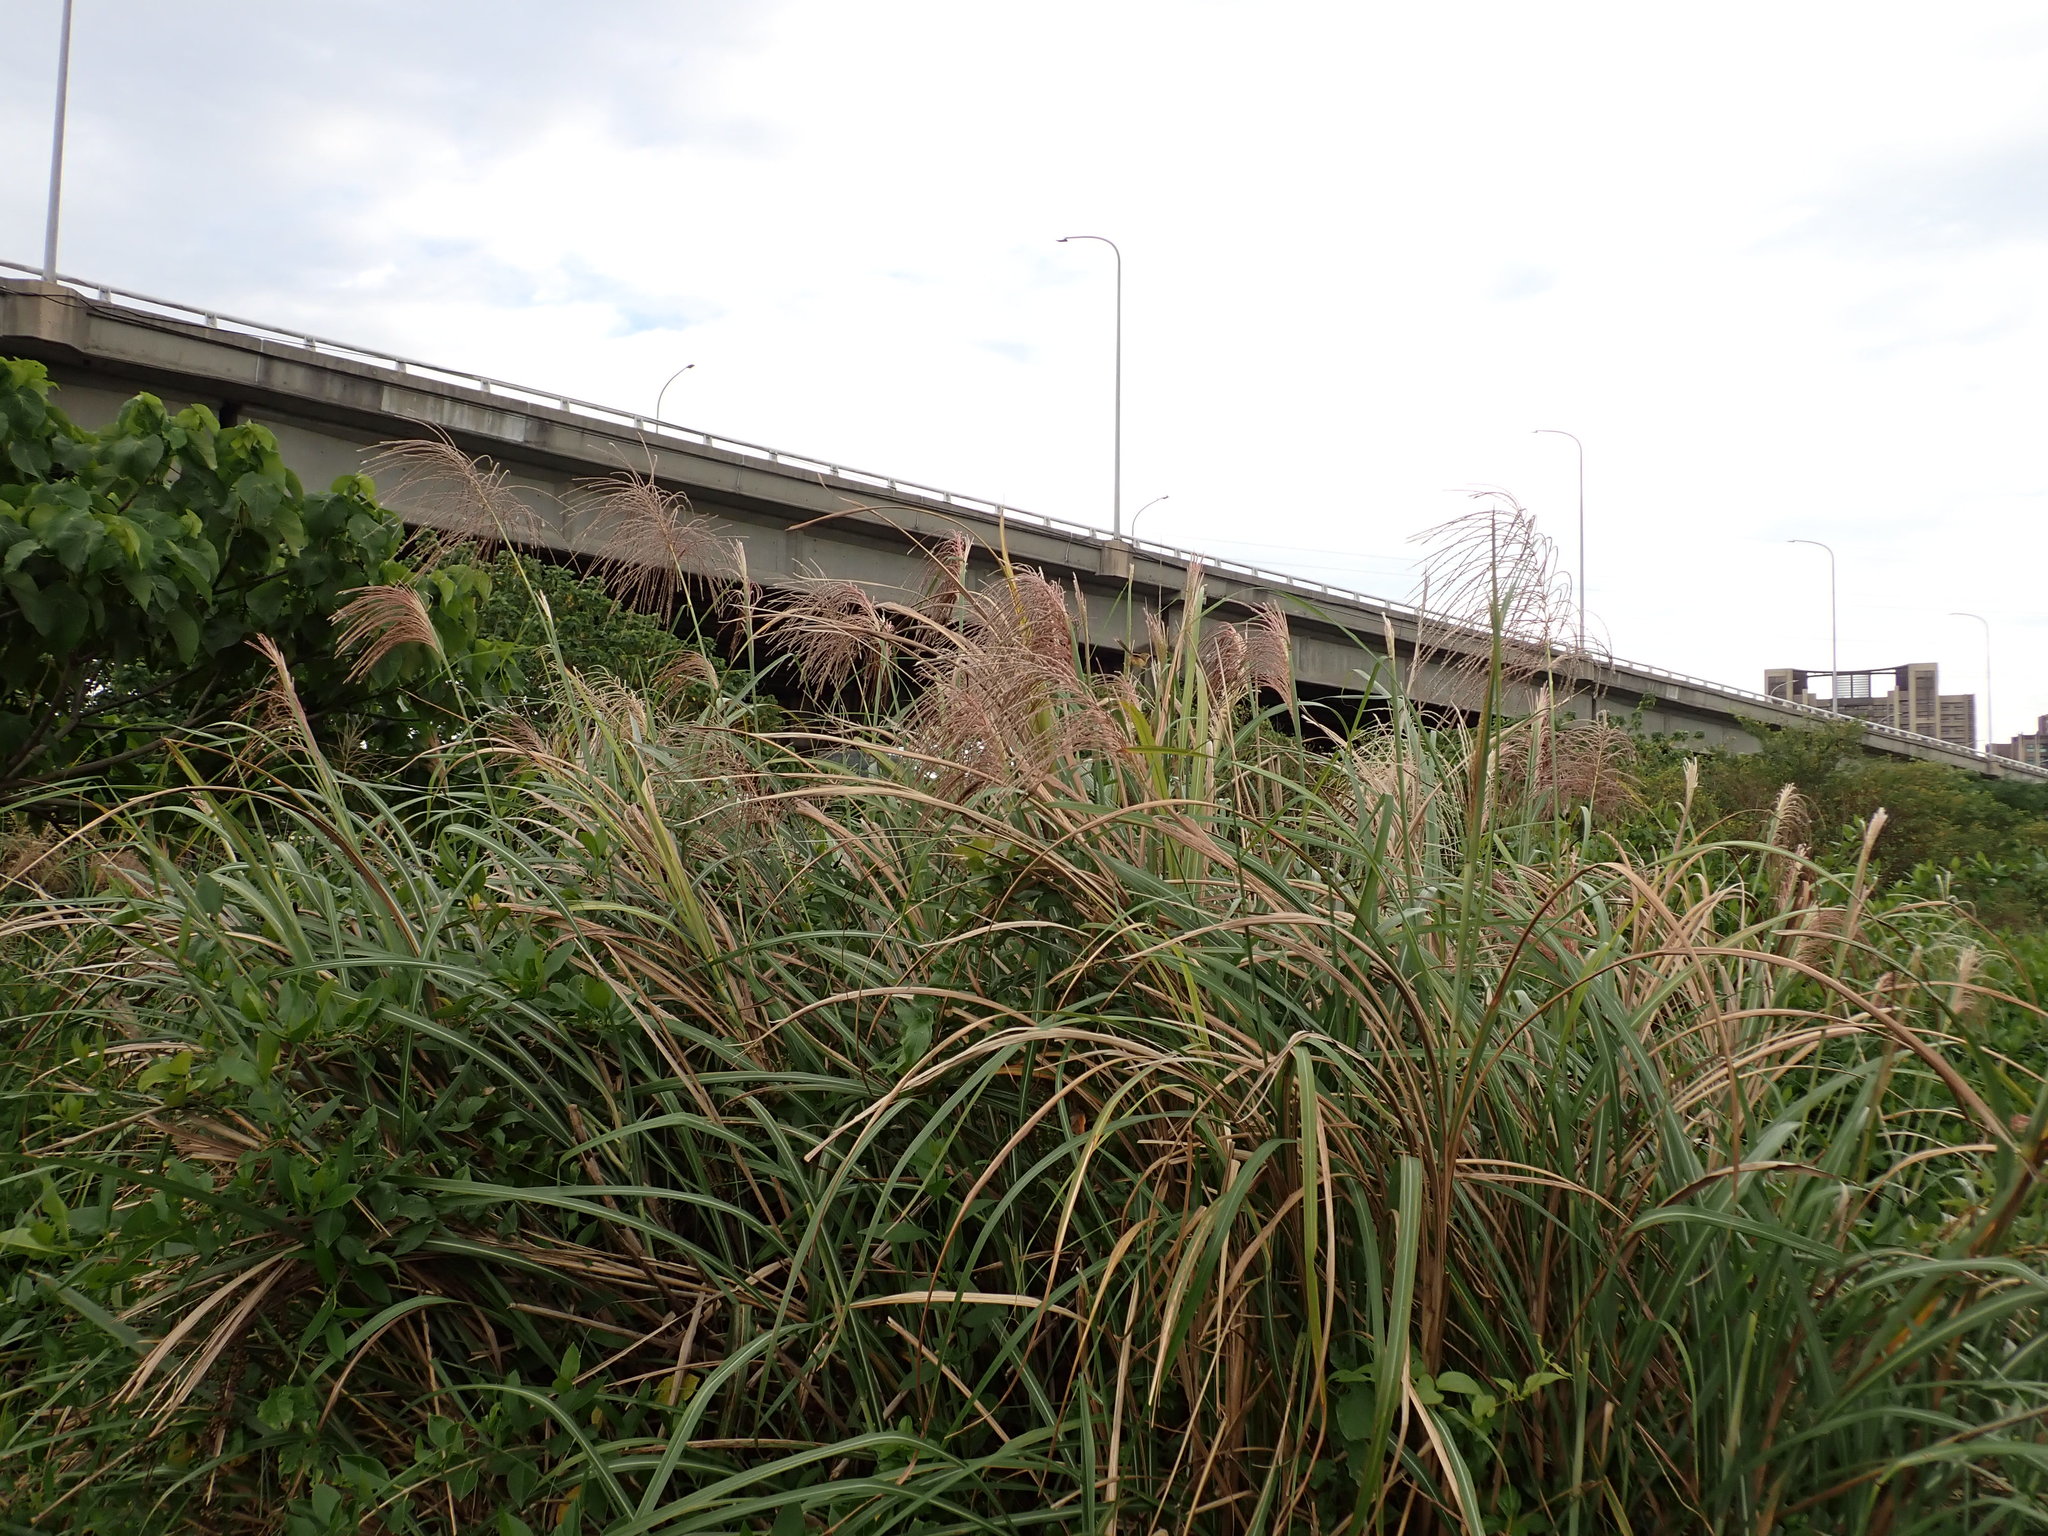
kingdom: Plantae
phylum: Tracheophyta
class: Liliopsida
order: Poales
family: Poaceae
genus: Miscanthus
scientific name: Miscanthus sinensis
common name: Chinese silvergrass
